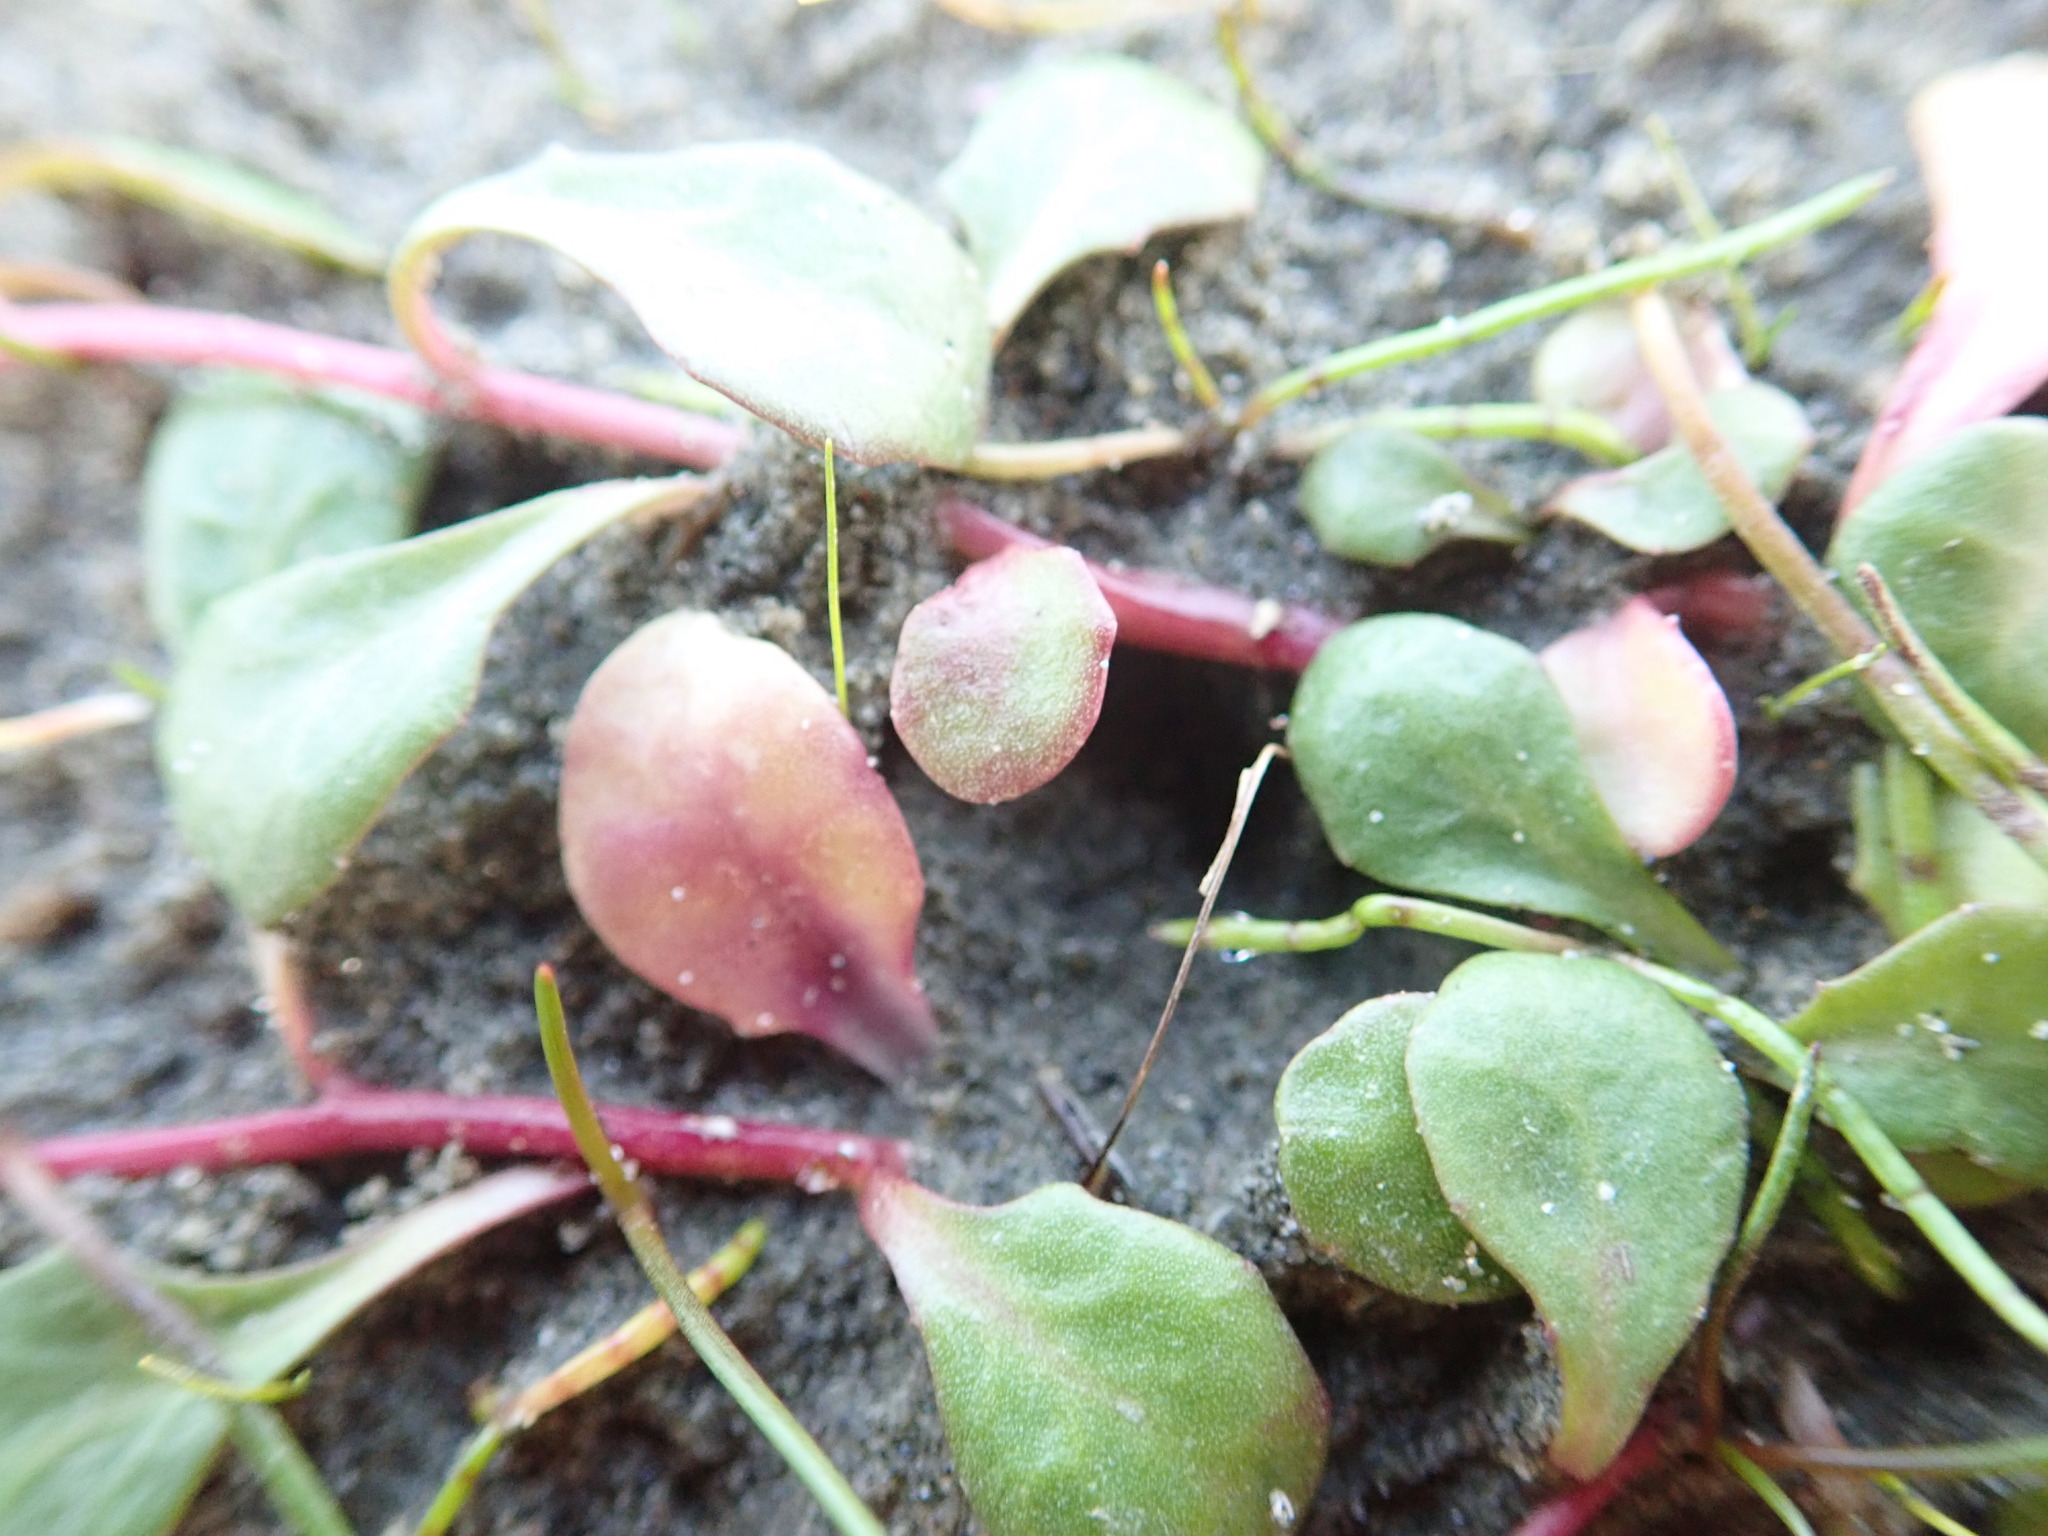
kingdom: Plantae
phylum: Tracheophyta
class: Magnoliopsida
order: Asterales
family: Campanulaceae
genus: Lobelia
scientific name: Lobelia anceps
